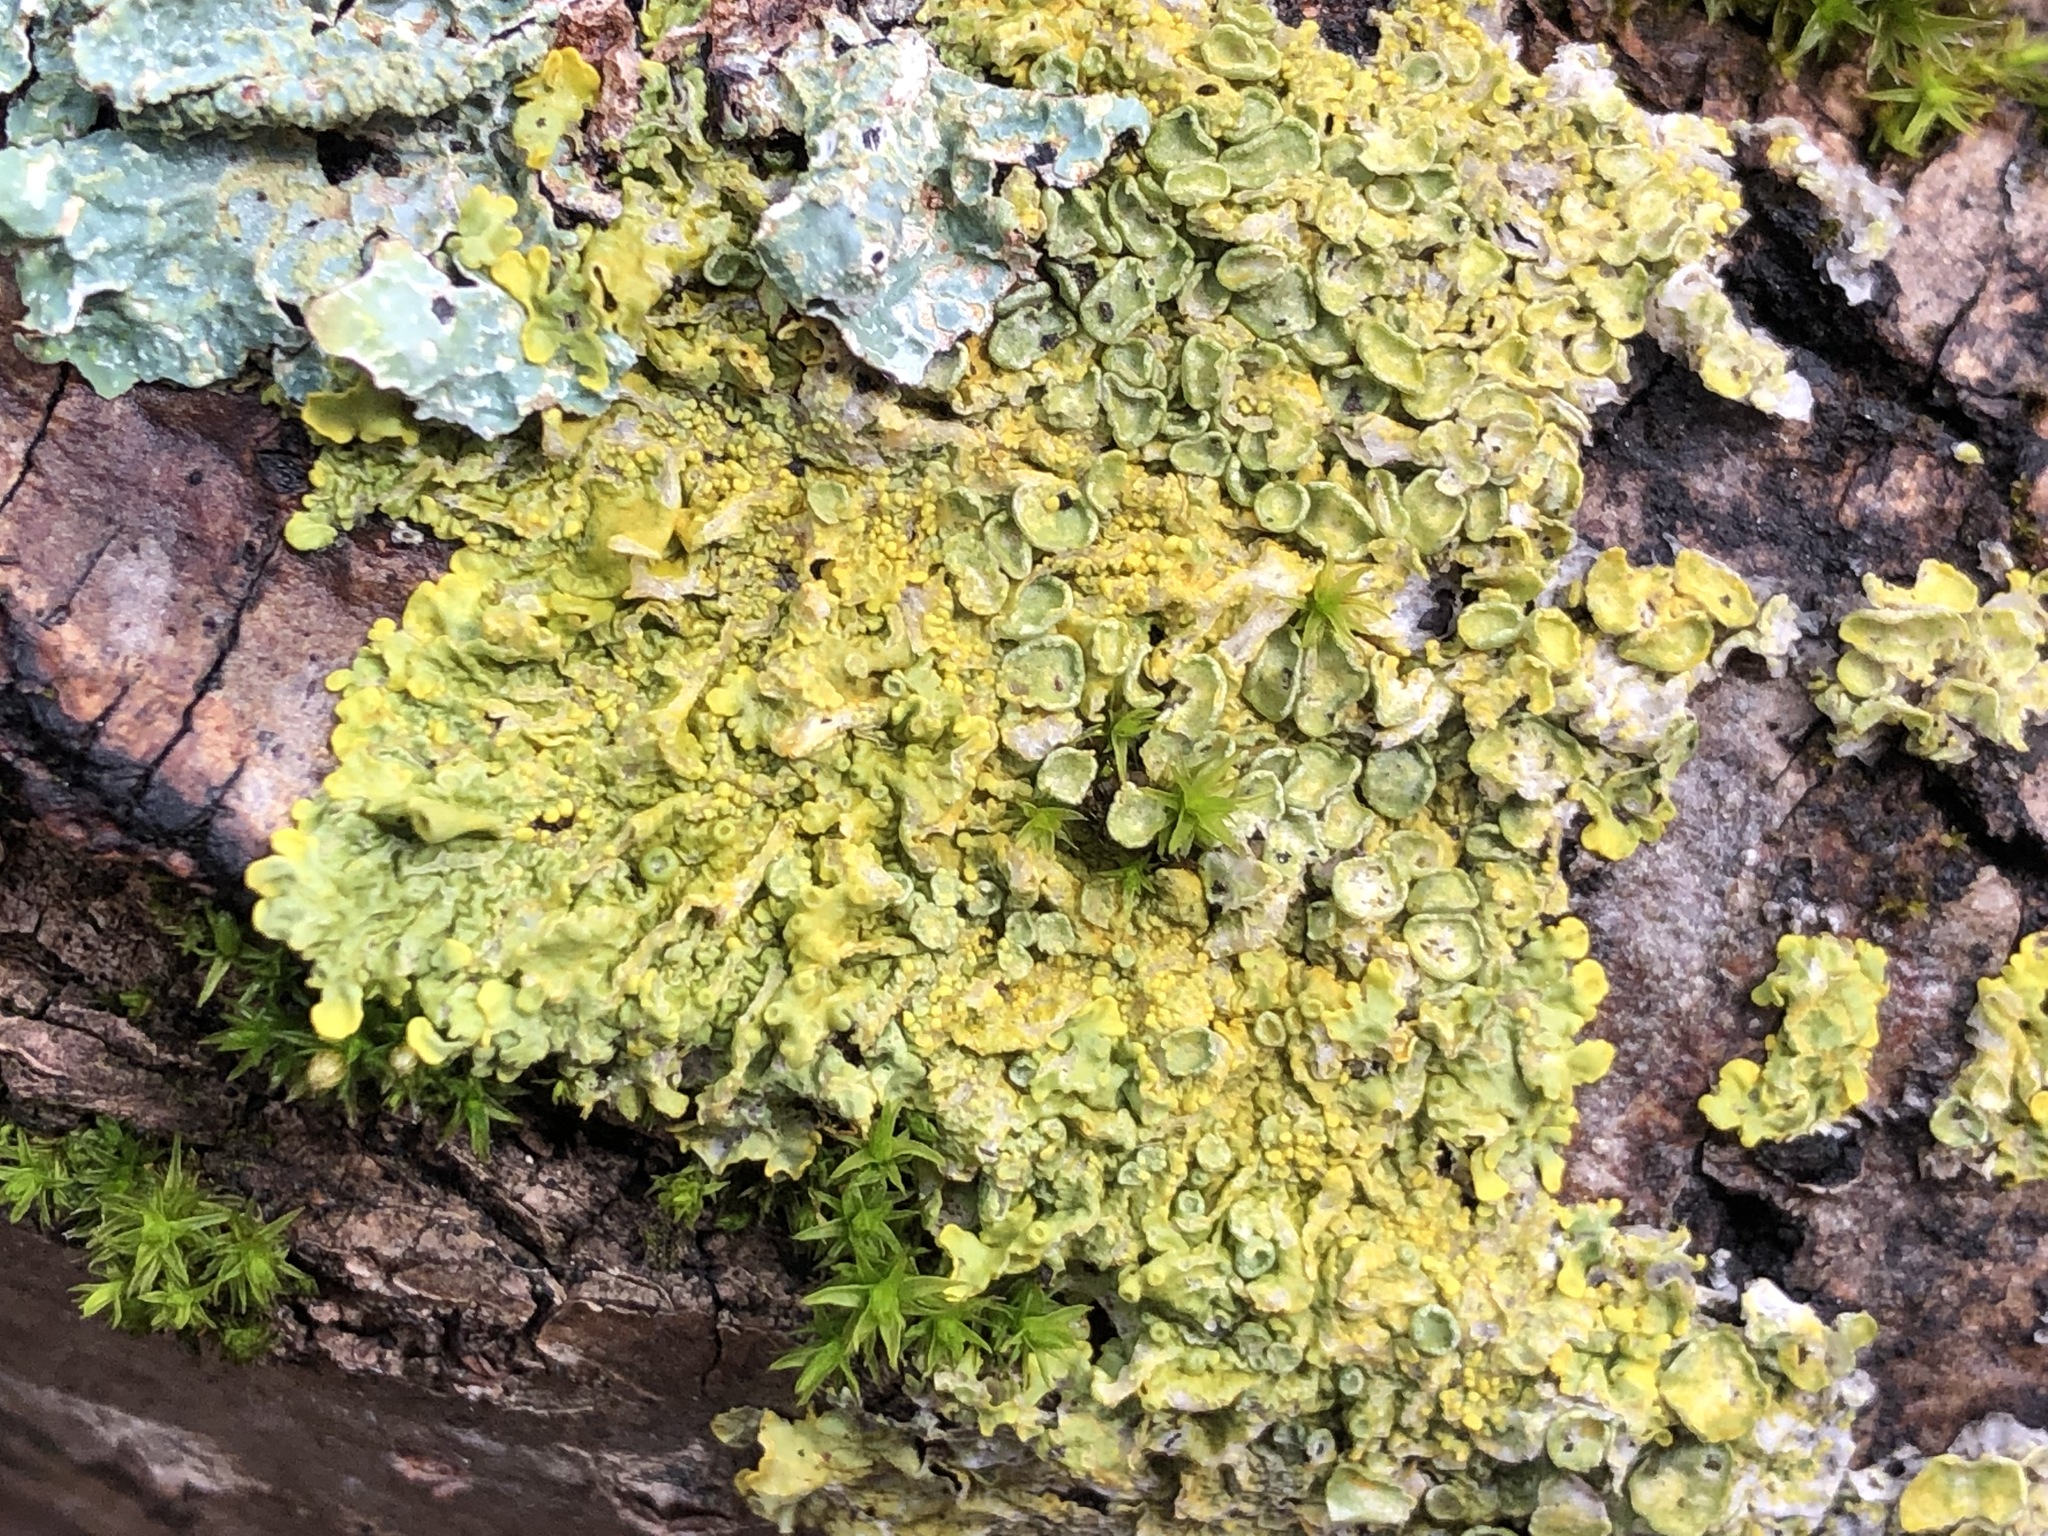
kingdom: Fungi
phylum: Ascomycota
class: Lecanoromycetes
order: Teloschistales
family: Teloschistaceae
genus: Xanthoria
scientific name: Xanthoria parietina
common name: Common orange lichen
